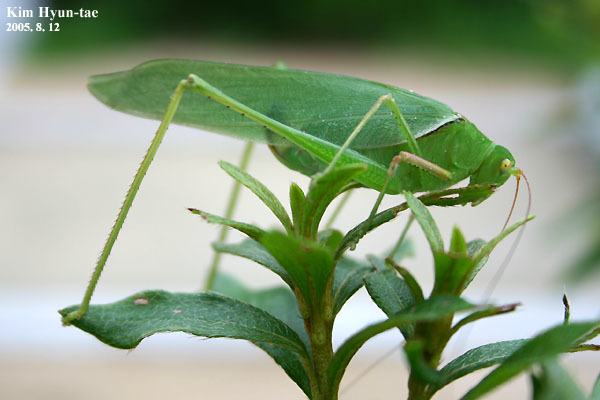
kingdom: Animalia
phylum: Arthropoda
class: Insecta
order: Orthoptera
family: Tettigoniidae
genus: Sinochlora
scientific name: Sinochlora longifissa
